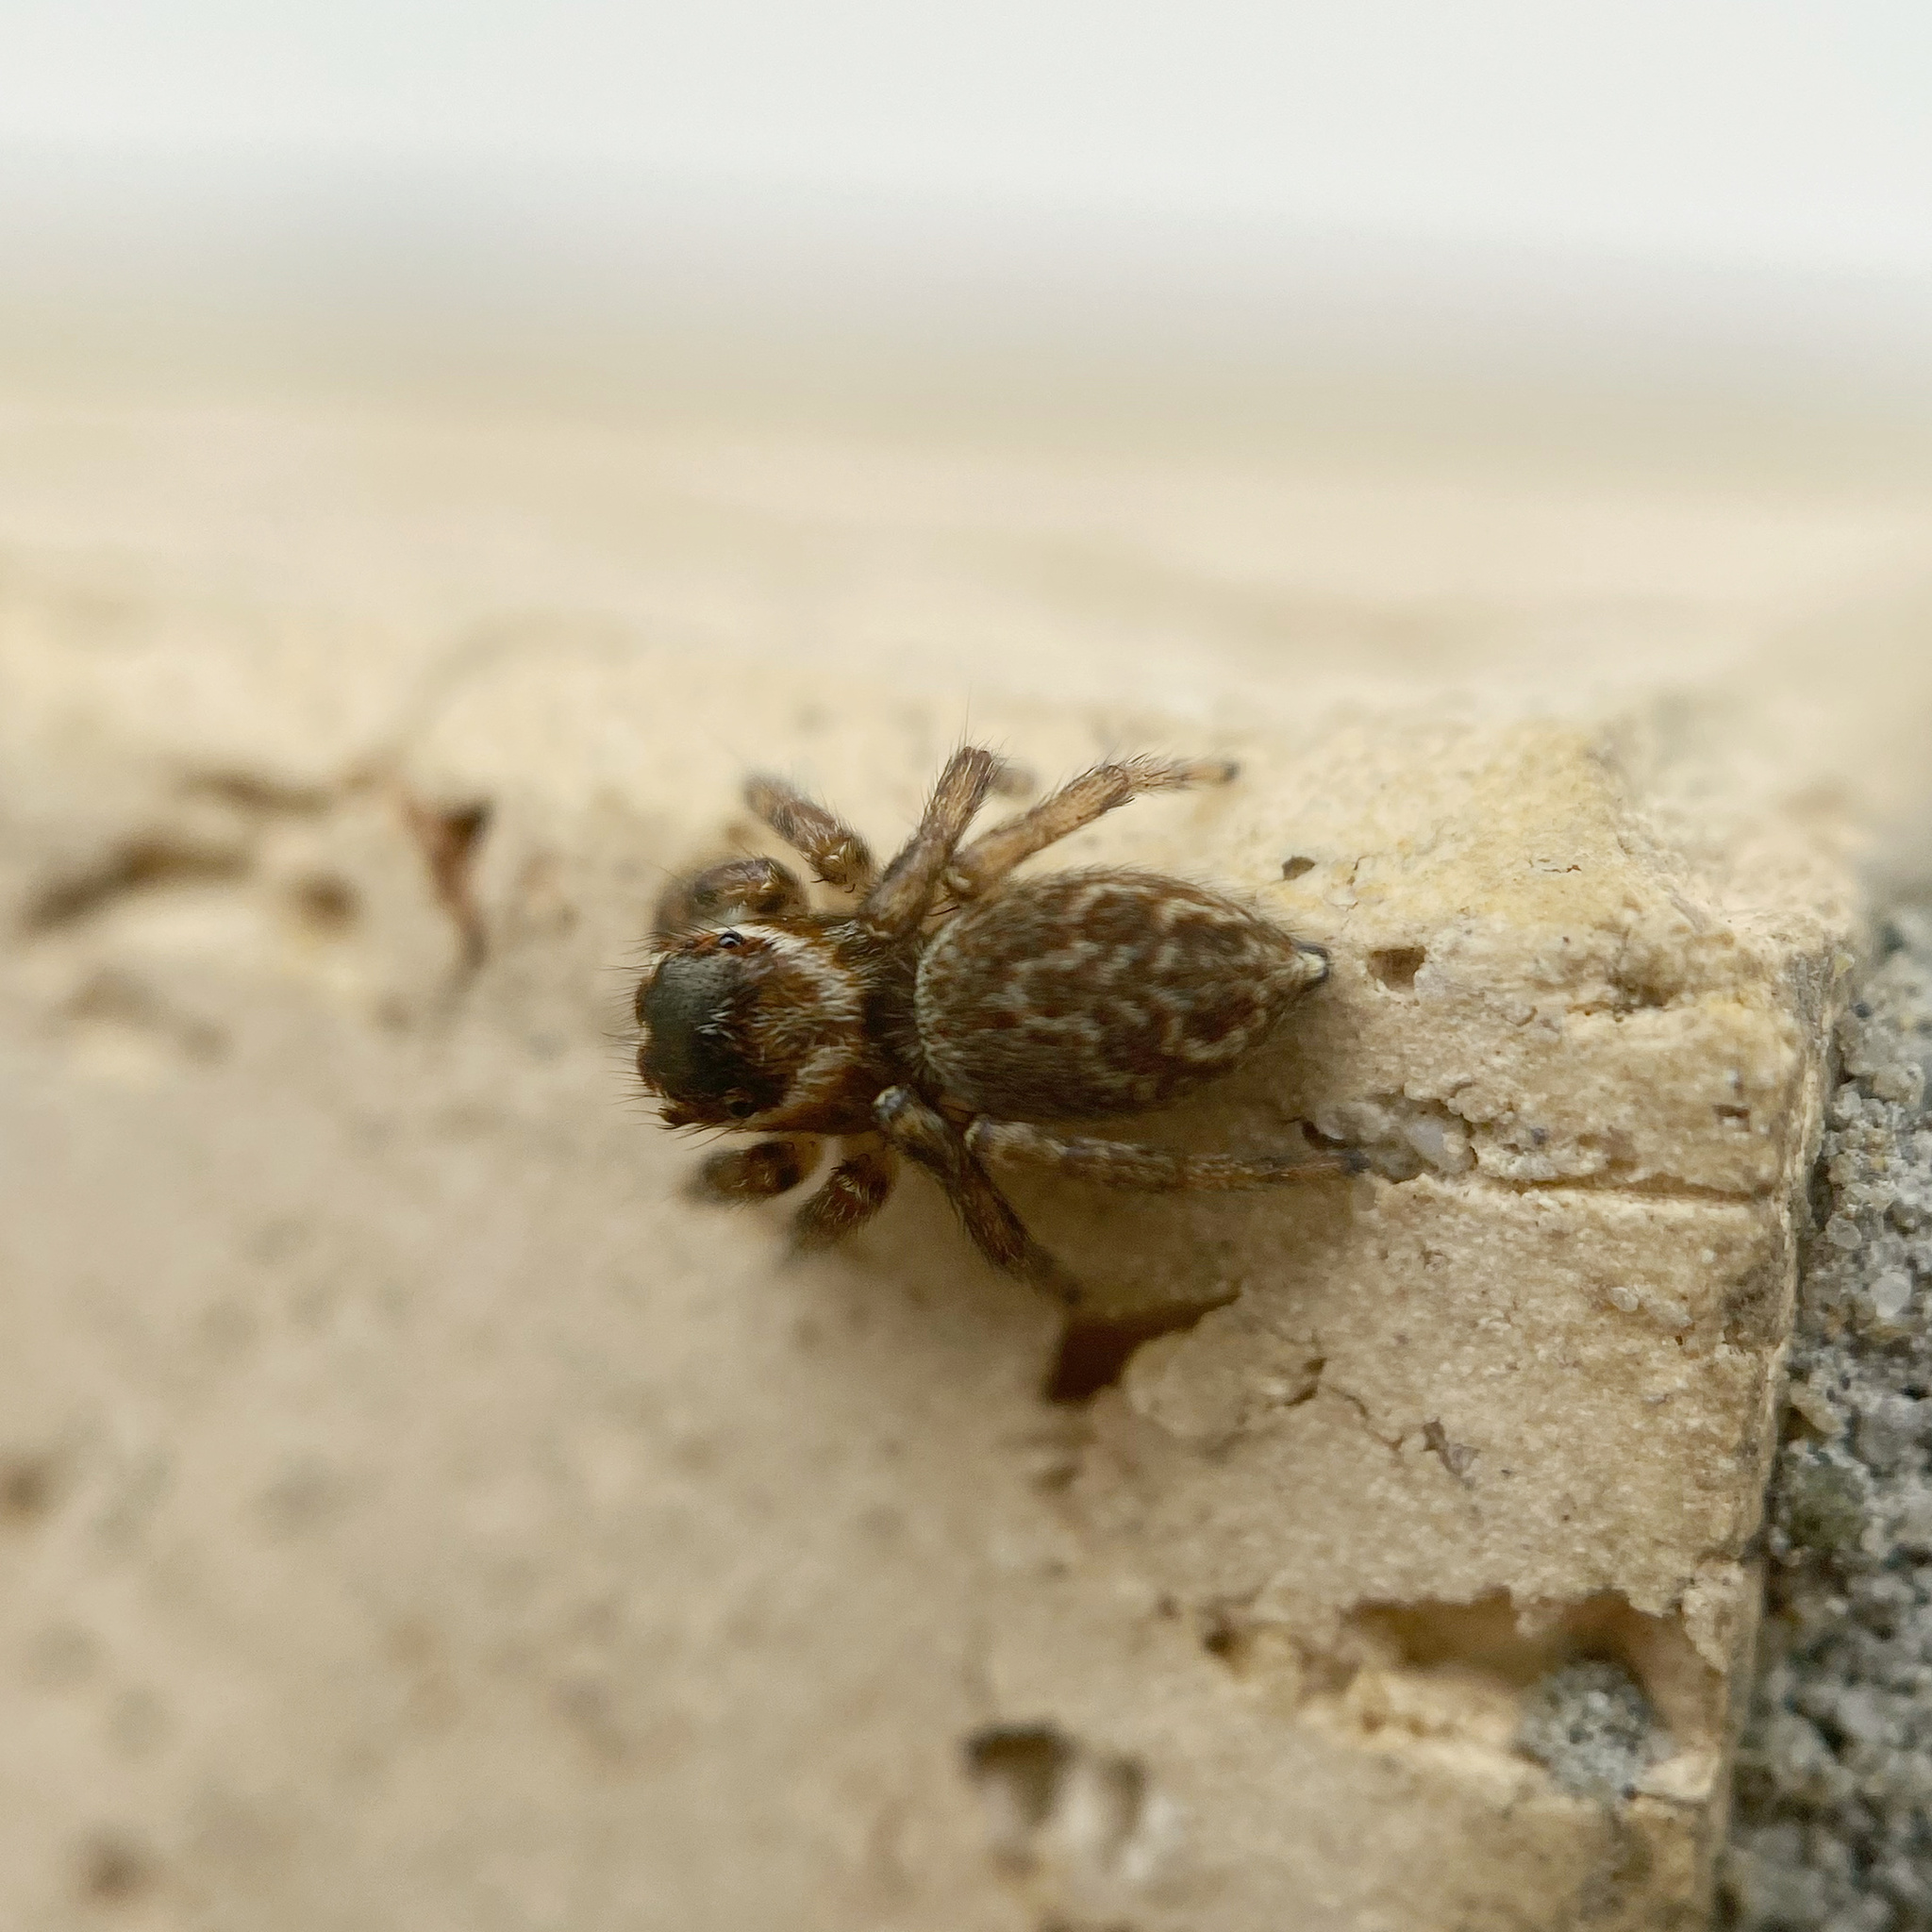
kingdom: Animalia
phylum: Arthropoda
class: Arachnida
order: Araneae
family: Salticidae
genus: Maratus
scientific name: Maratus griseus
